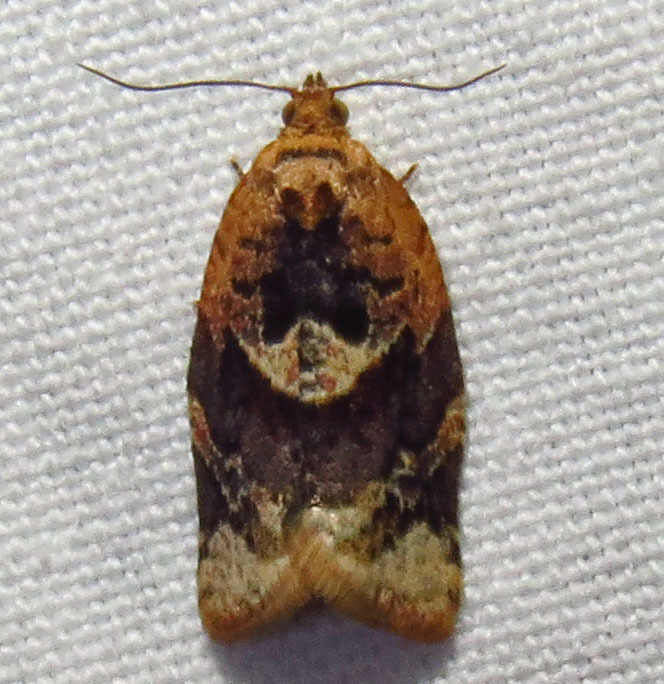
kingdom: Animalia
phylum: Arthropoda
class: Insecta
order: Lepidoptera
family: Tortricidae
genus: Argyrotaenia
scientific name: Argyrotaenia velutinana
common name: Red-banded leafroller moth
